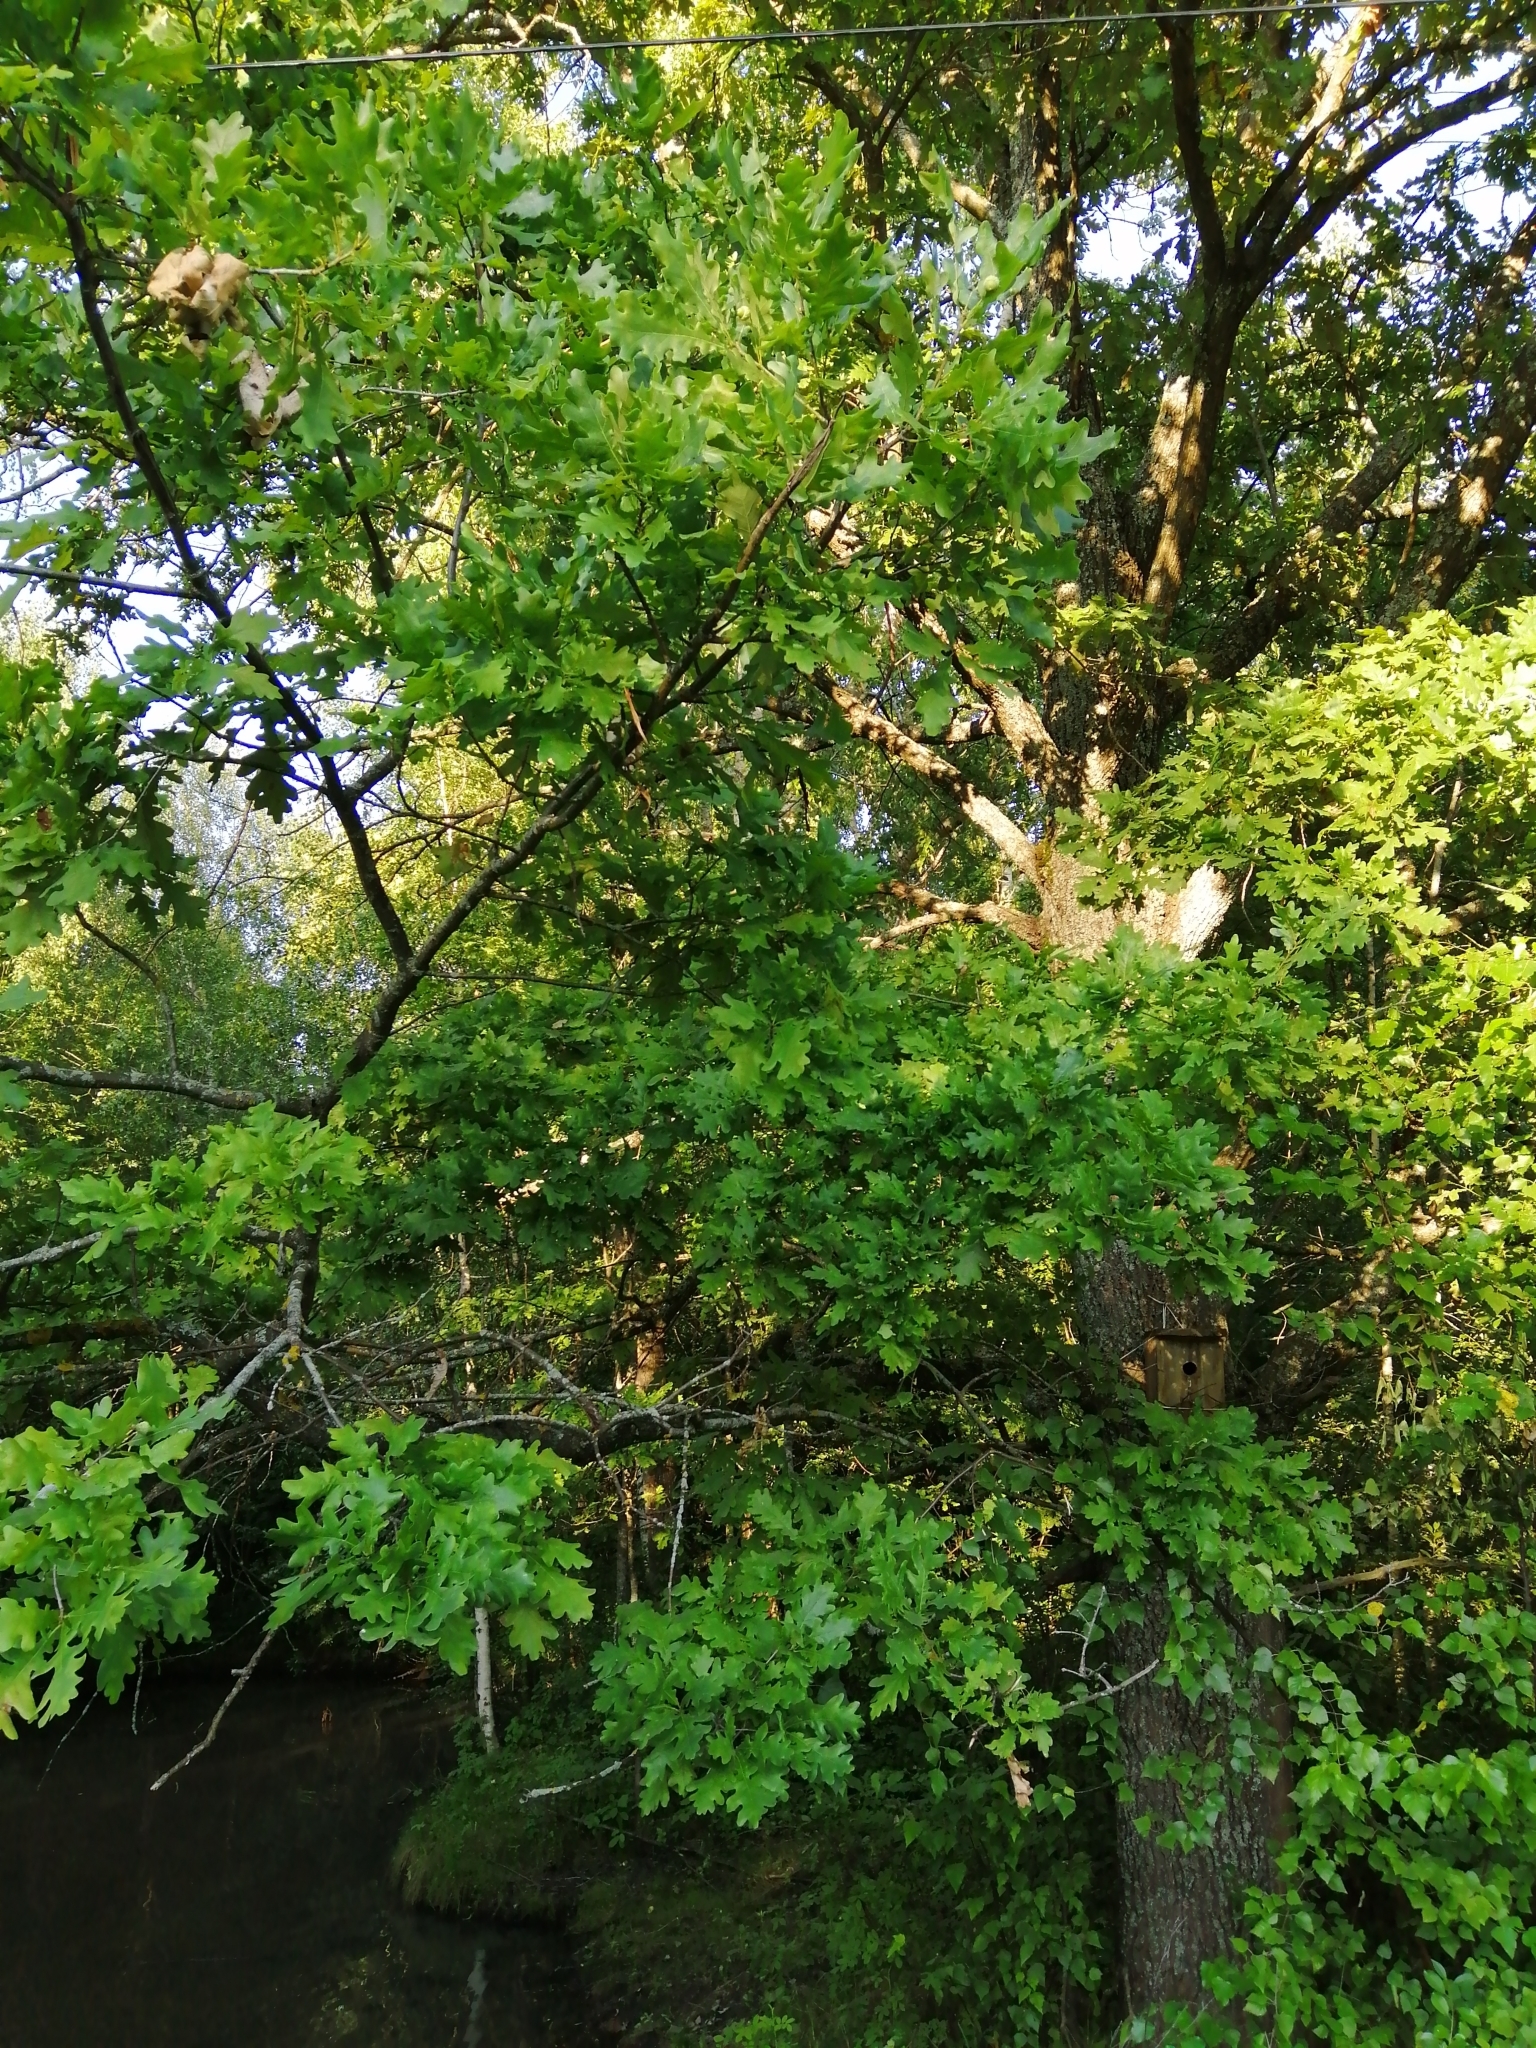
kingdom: Plantae
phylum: Tracheophyta
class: Magnoliopsida
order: Fagales
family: Fagaceae
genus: Quercus
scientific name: Quercus robur
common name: Pedunculate oak
